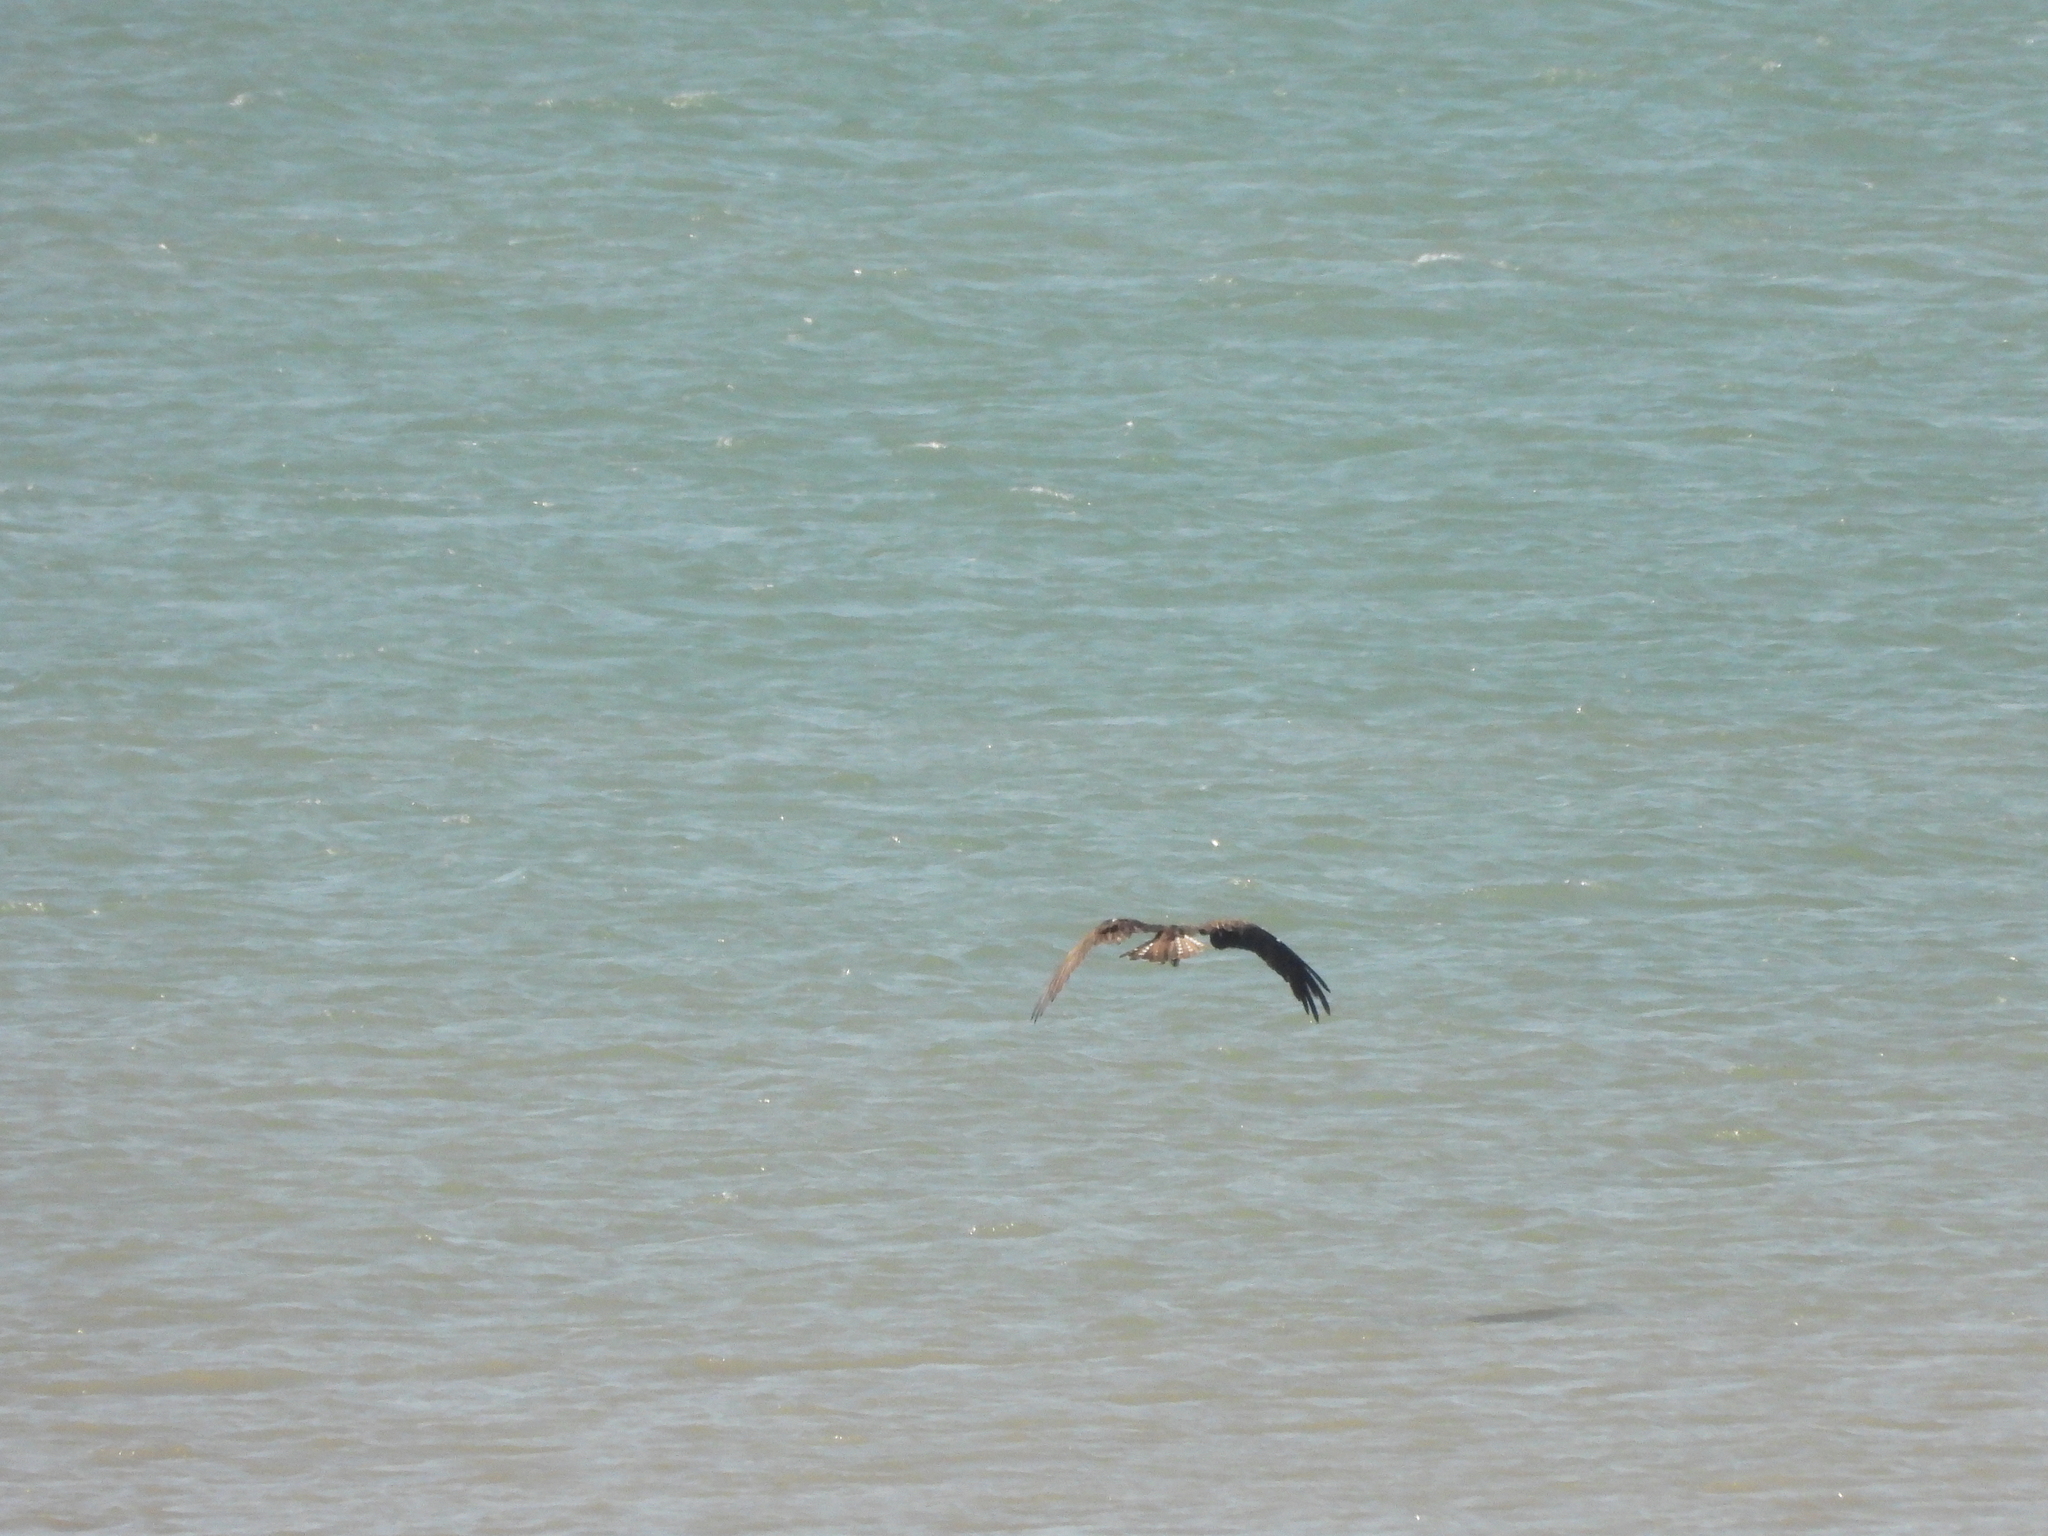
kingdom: Animalia
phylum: Chordata
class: Aves
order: Accipitriformes
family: Pandionidae
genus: Pandion
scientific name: Pandion haliaetus
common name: Osprey
